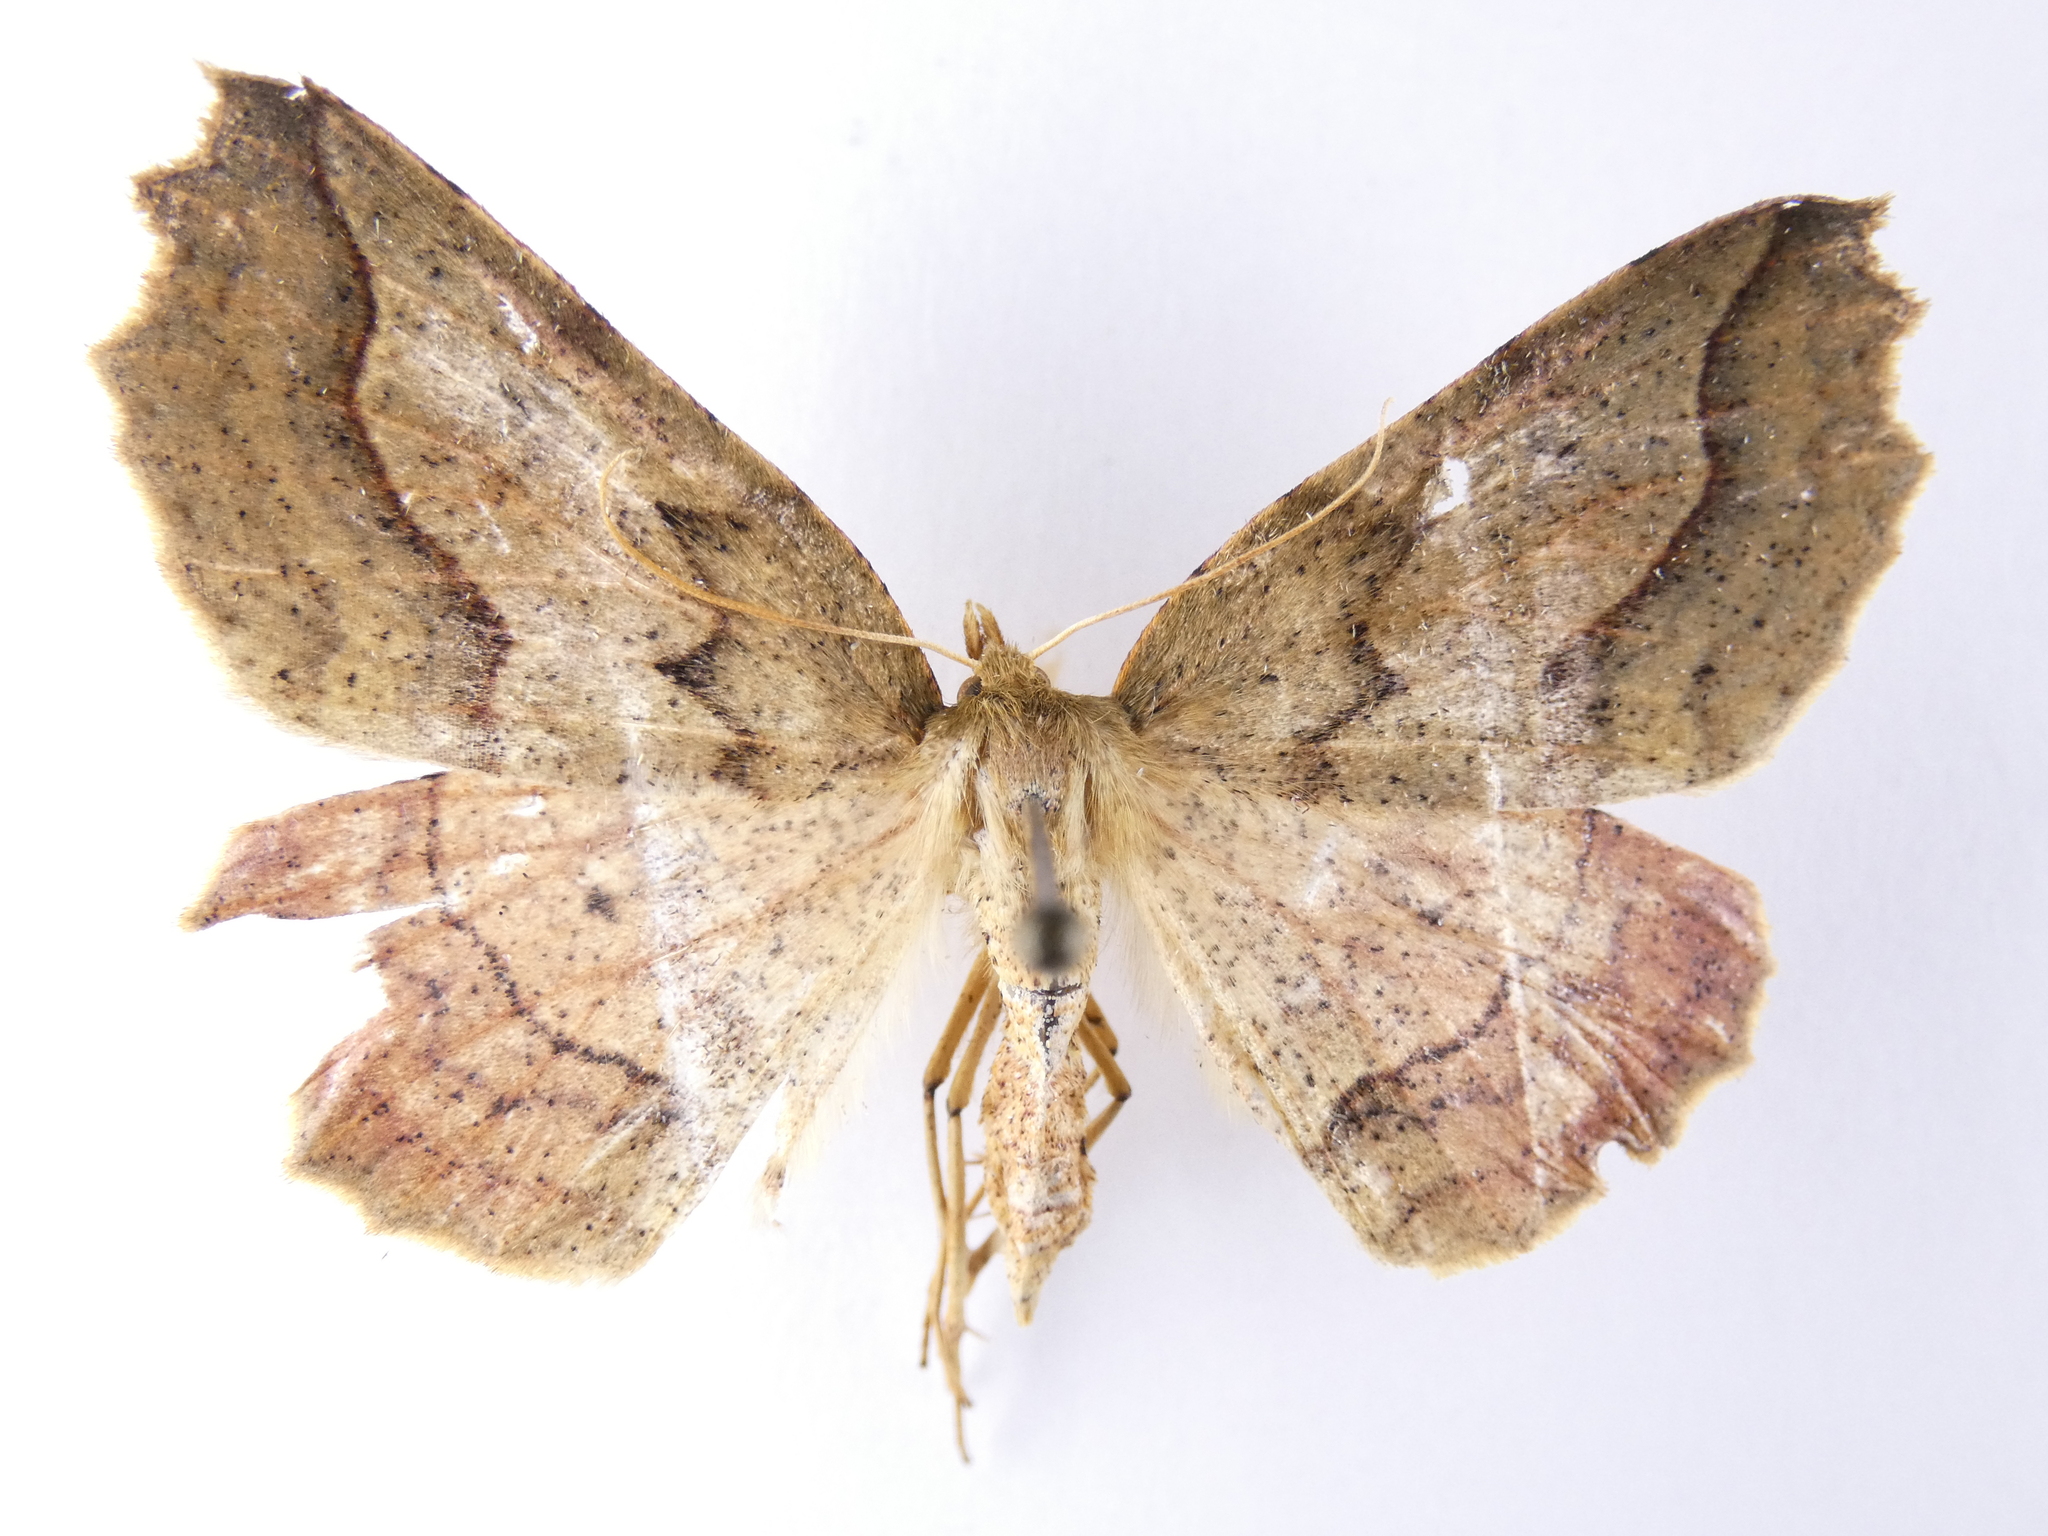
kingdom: Animalia
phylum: Arthropoda
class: Insecta
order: Lepidoptera
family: Geometridae
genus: Ischalis
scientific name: Ischalis variabilis
